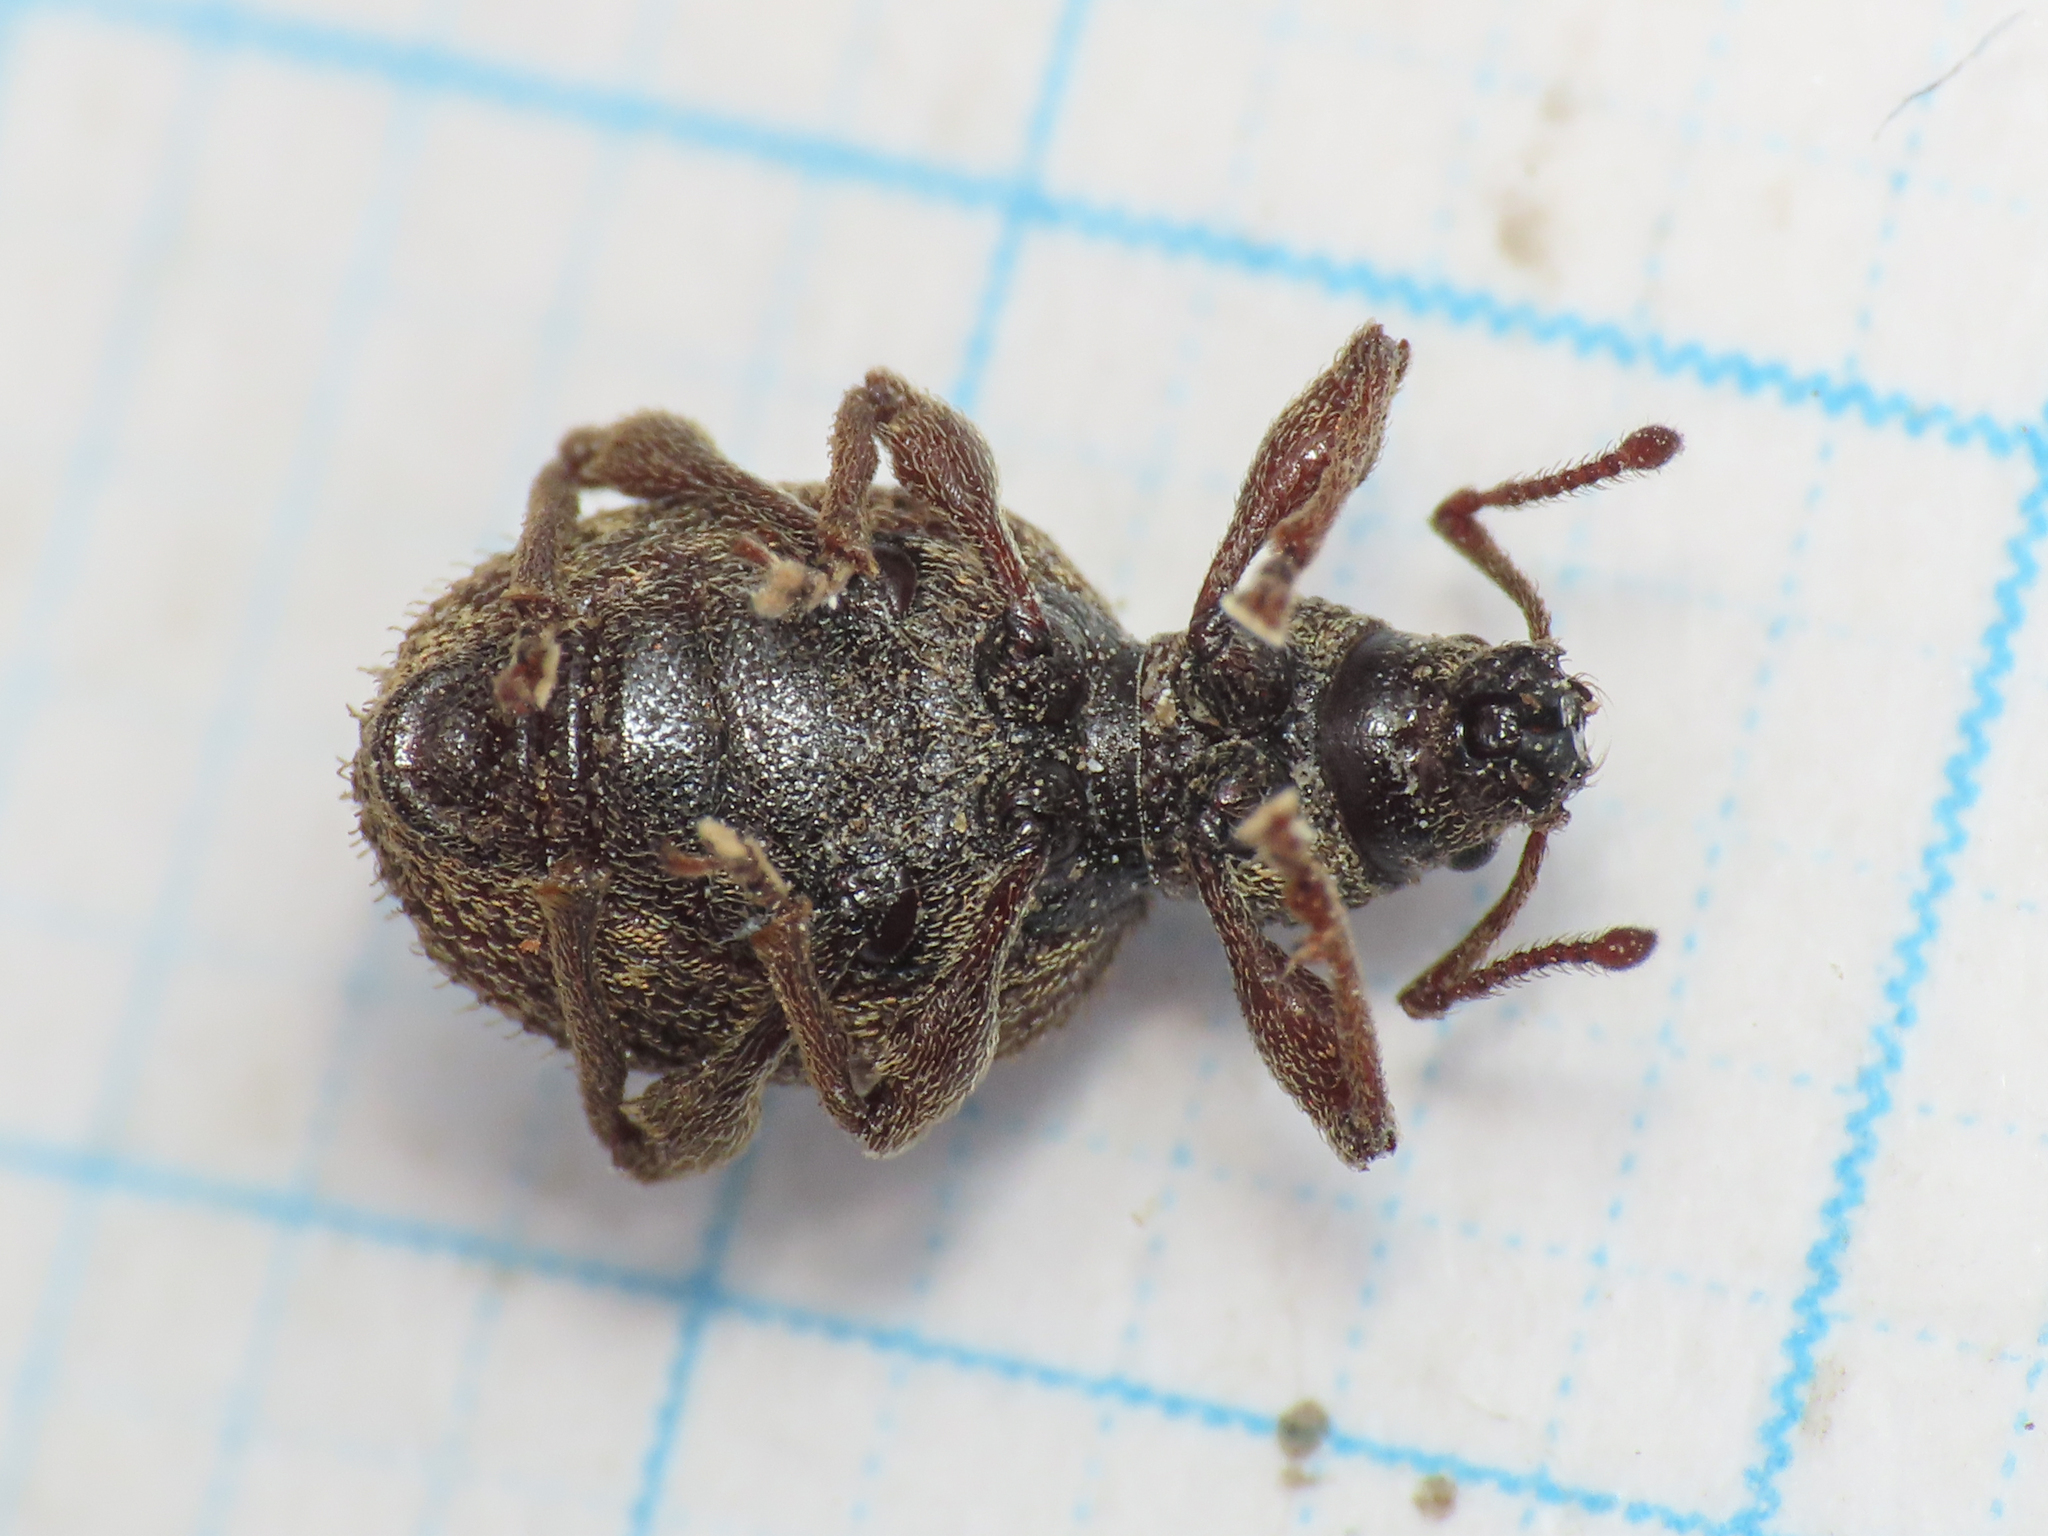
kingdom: Animalia
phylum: Arthropoda
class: Insecta
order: Coleoptera
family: Curculionidae
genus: Otiorhynchus
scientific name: Otiorhynchus crataegi
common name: Privet weevil
